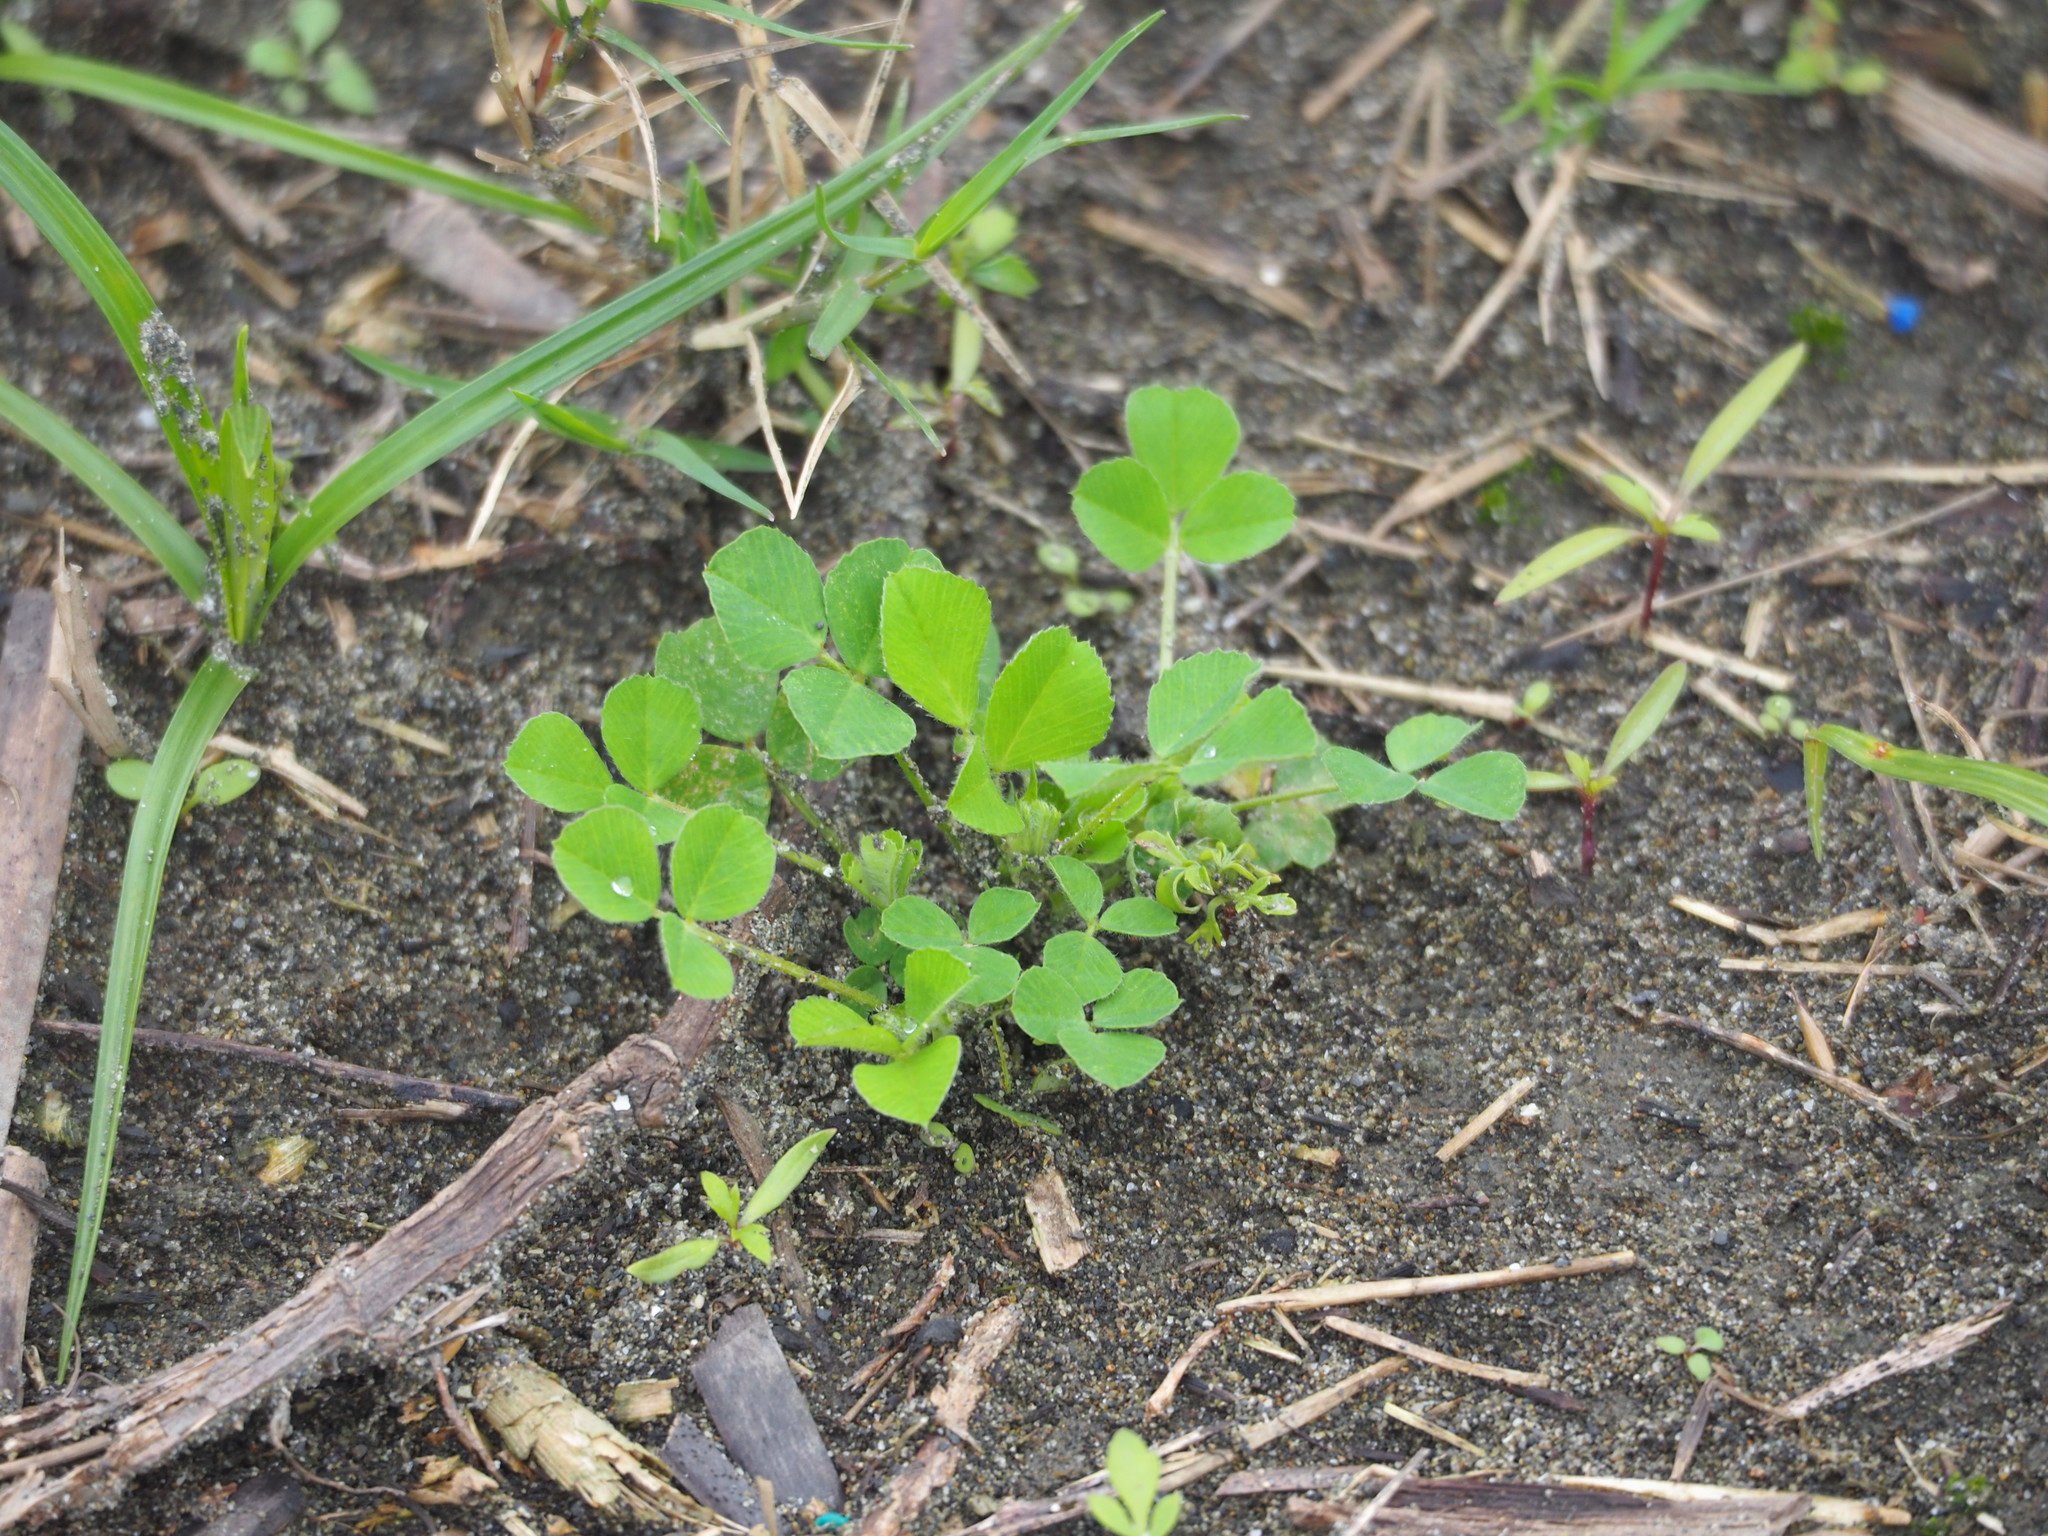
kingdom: Plantae
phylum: Tracheophyta
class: Magnoliopsida
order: Fabales
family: Fabaceae
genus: Medicago
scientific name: Medicago lupulina
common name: Black medick
